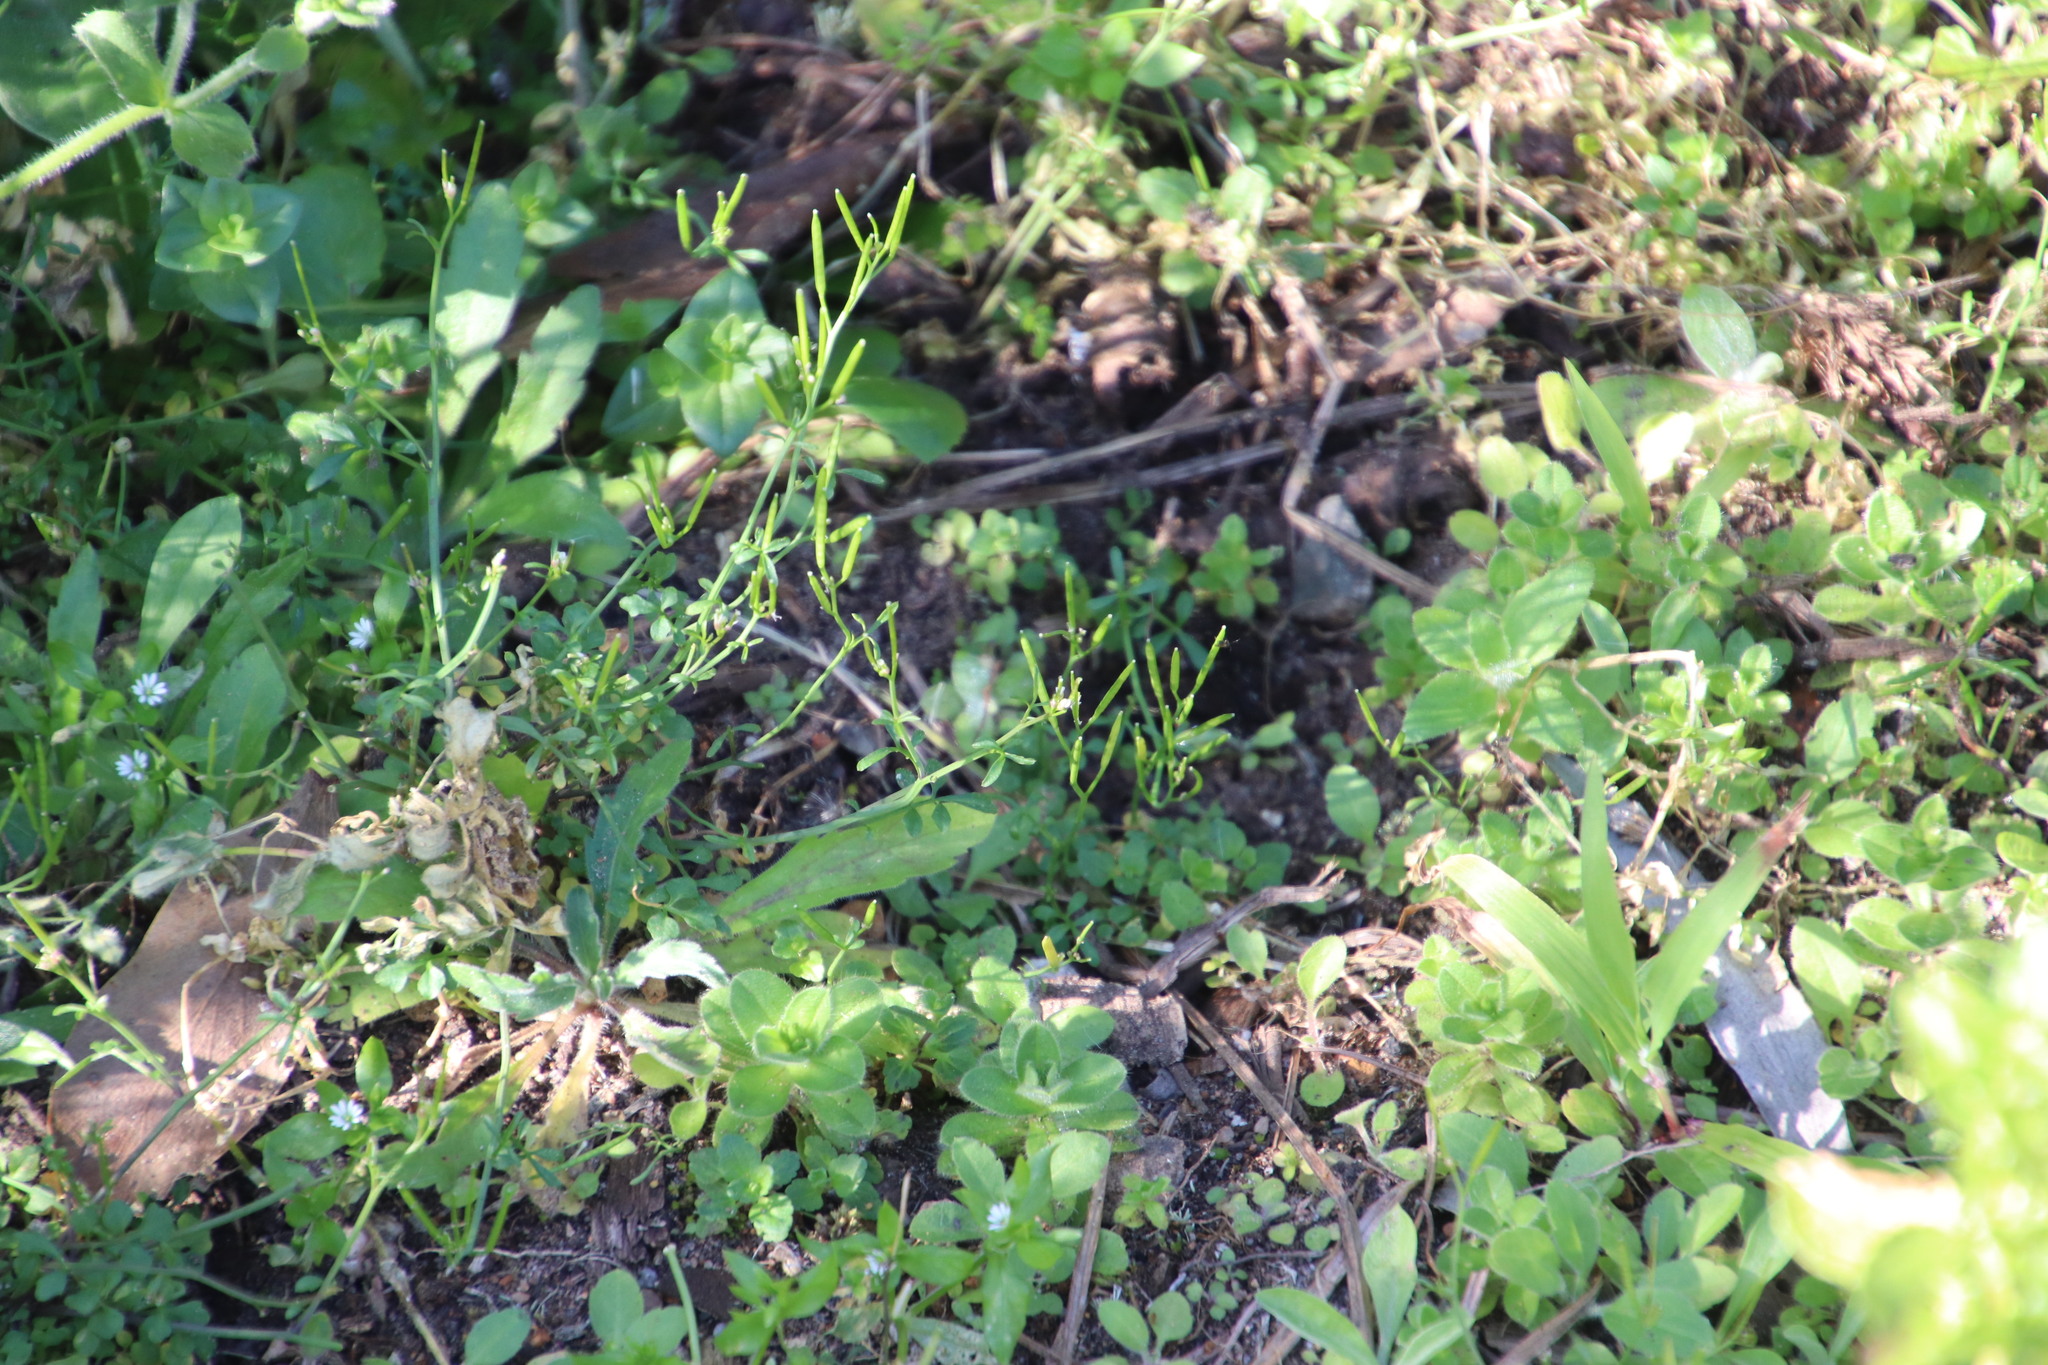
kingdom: Plantae
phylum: Tracheophyta
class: Magnoliopsida
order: Brassicales
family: Brassicaceae
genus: Cardamine
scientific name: Cardamine hirsuta
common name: Hairy bittercress
